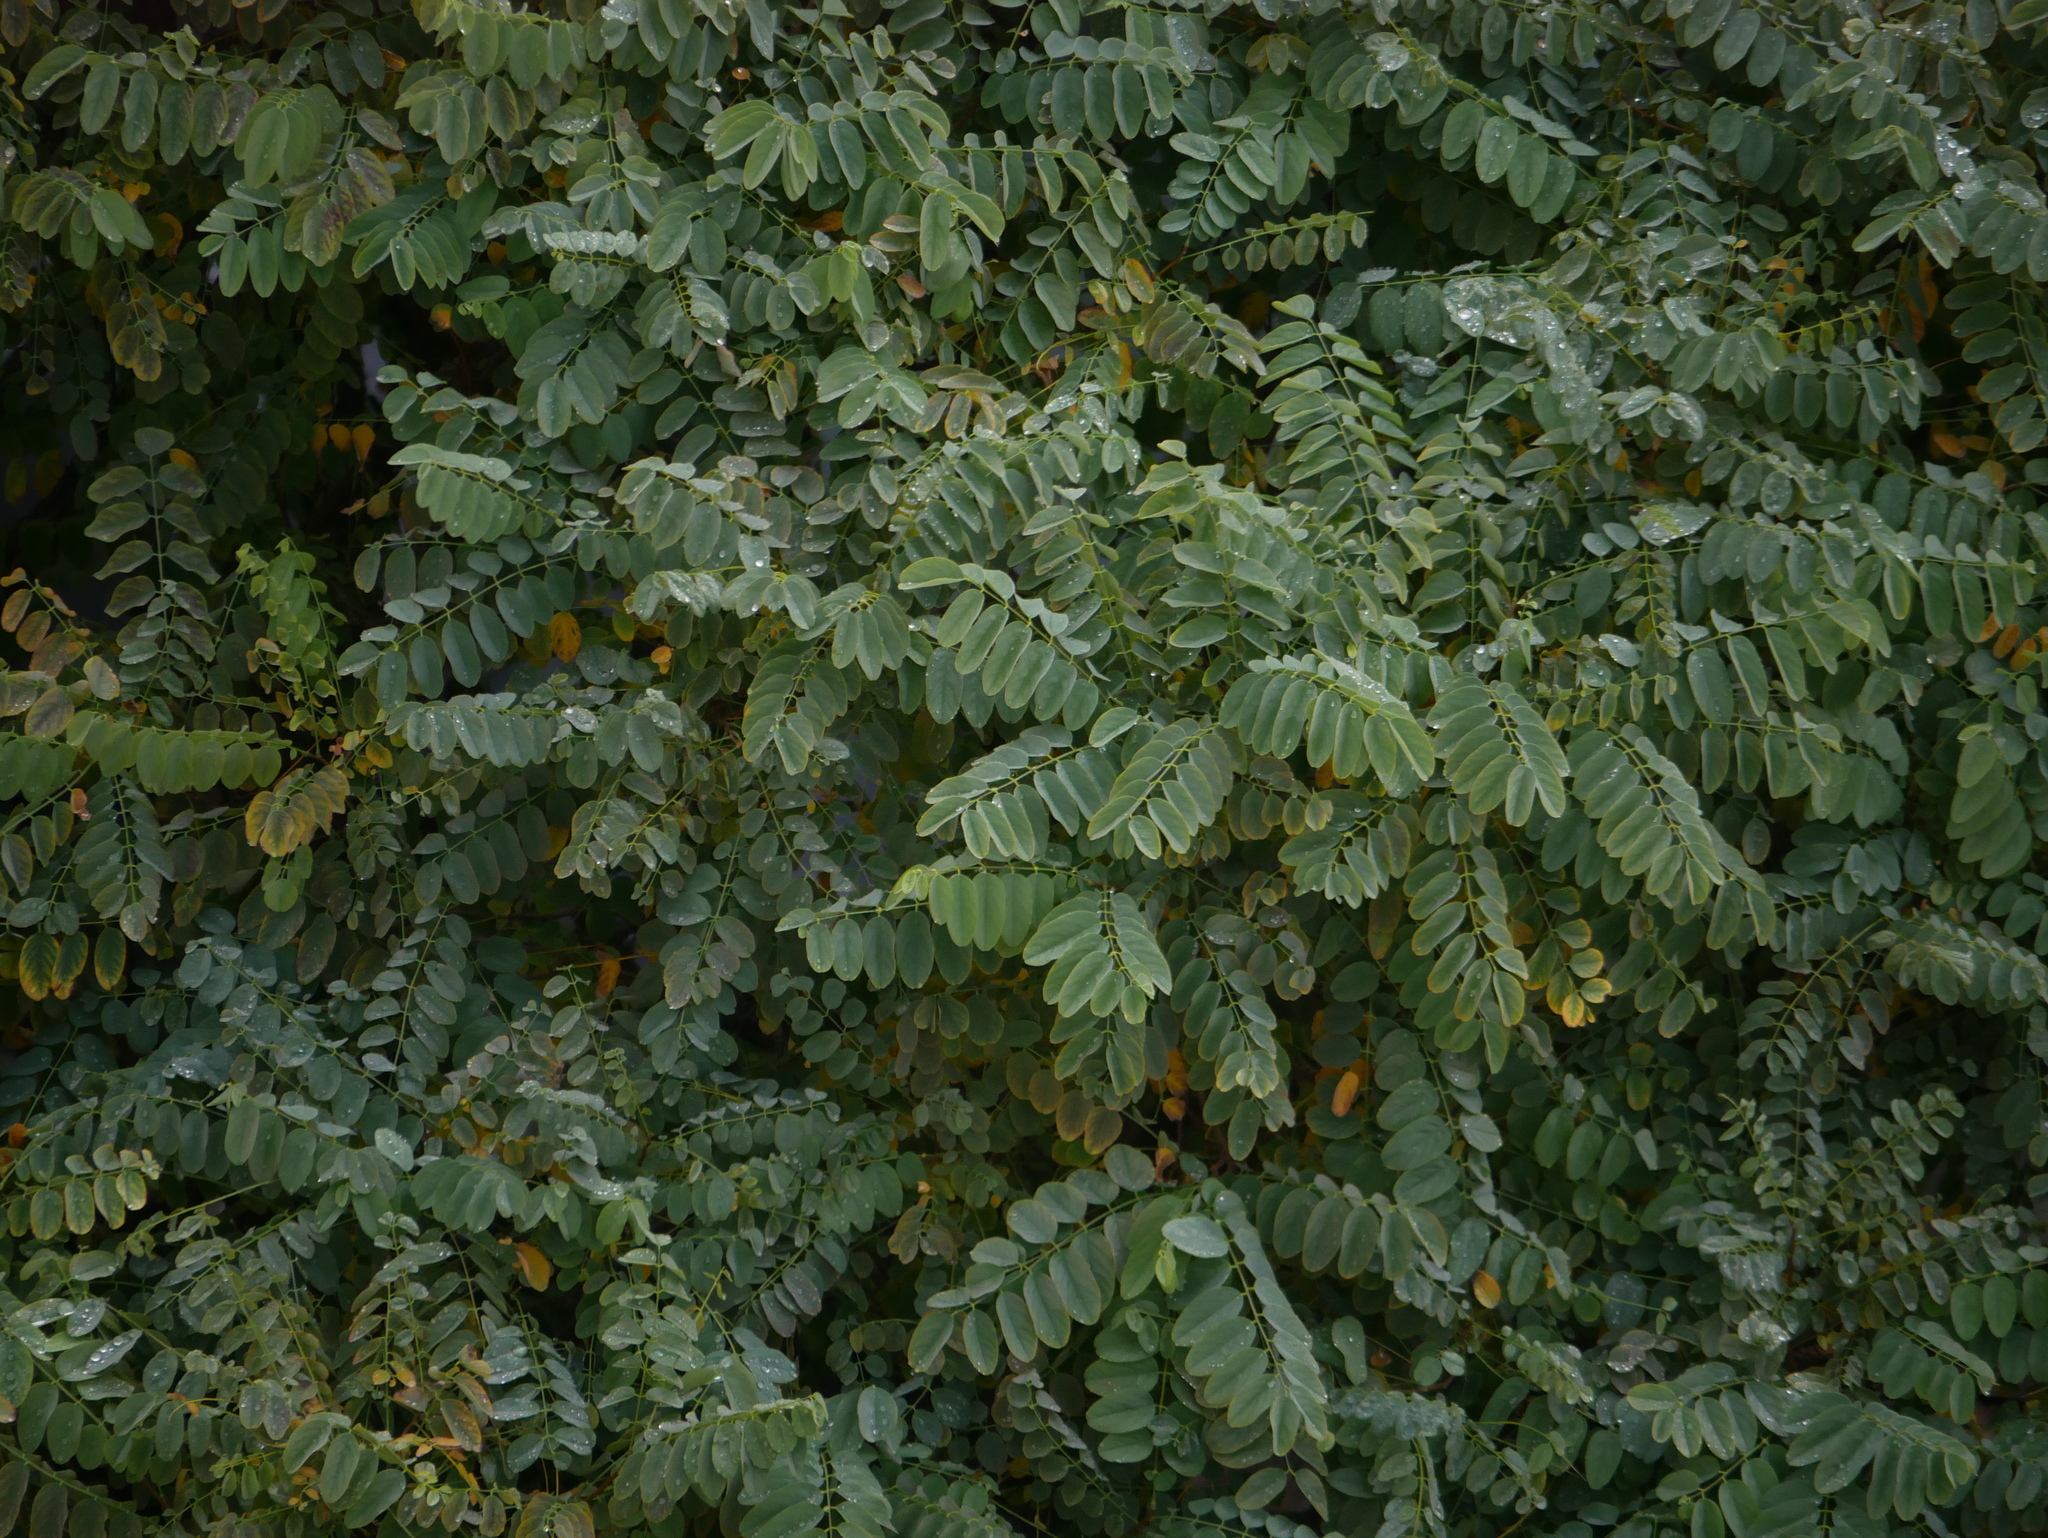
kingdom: Plantae
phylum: Tracheophyta
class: Magnoliopsida
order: Fabales
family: Fabaceae
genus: Robinia
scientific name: Robinia pseudoacacia
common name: Black locust
